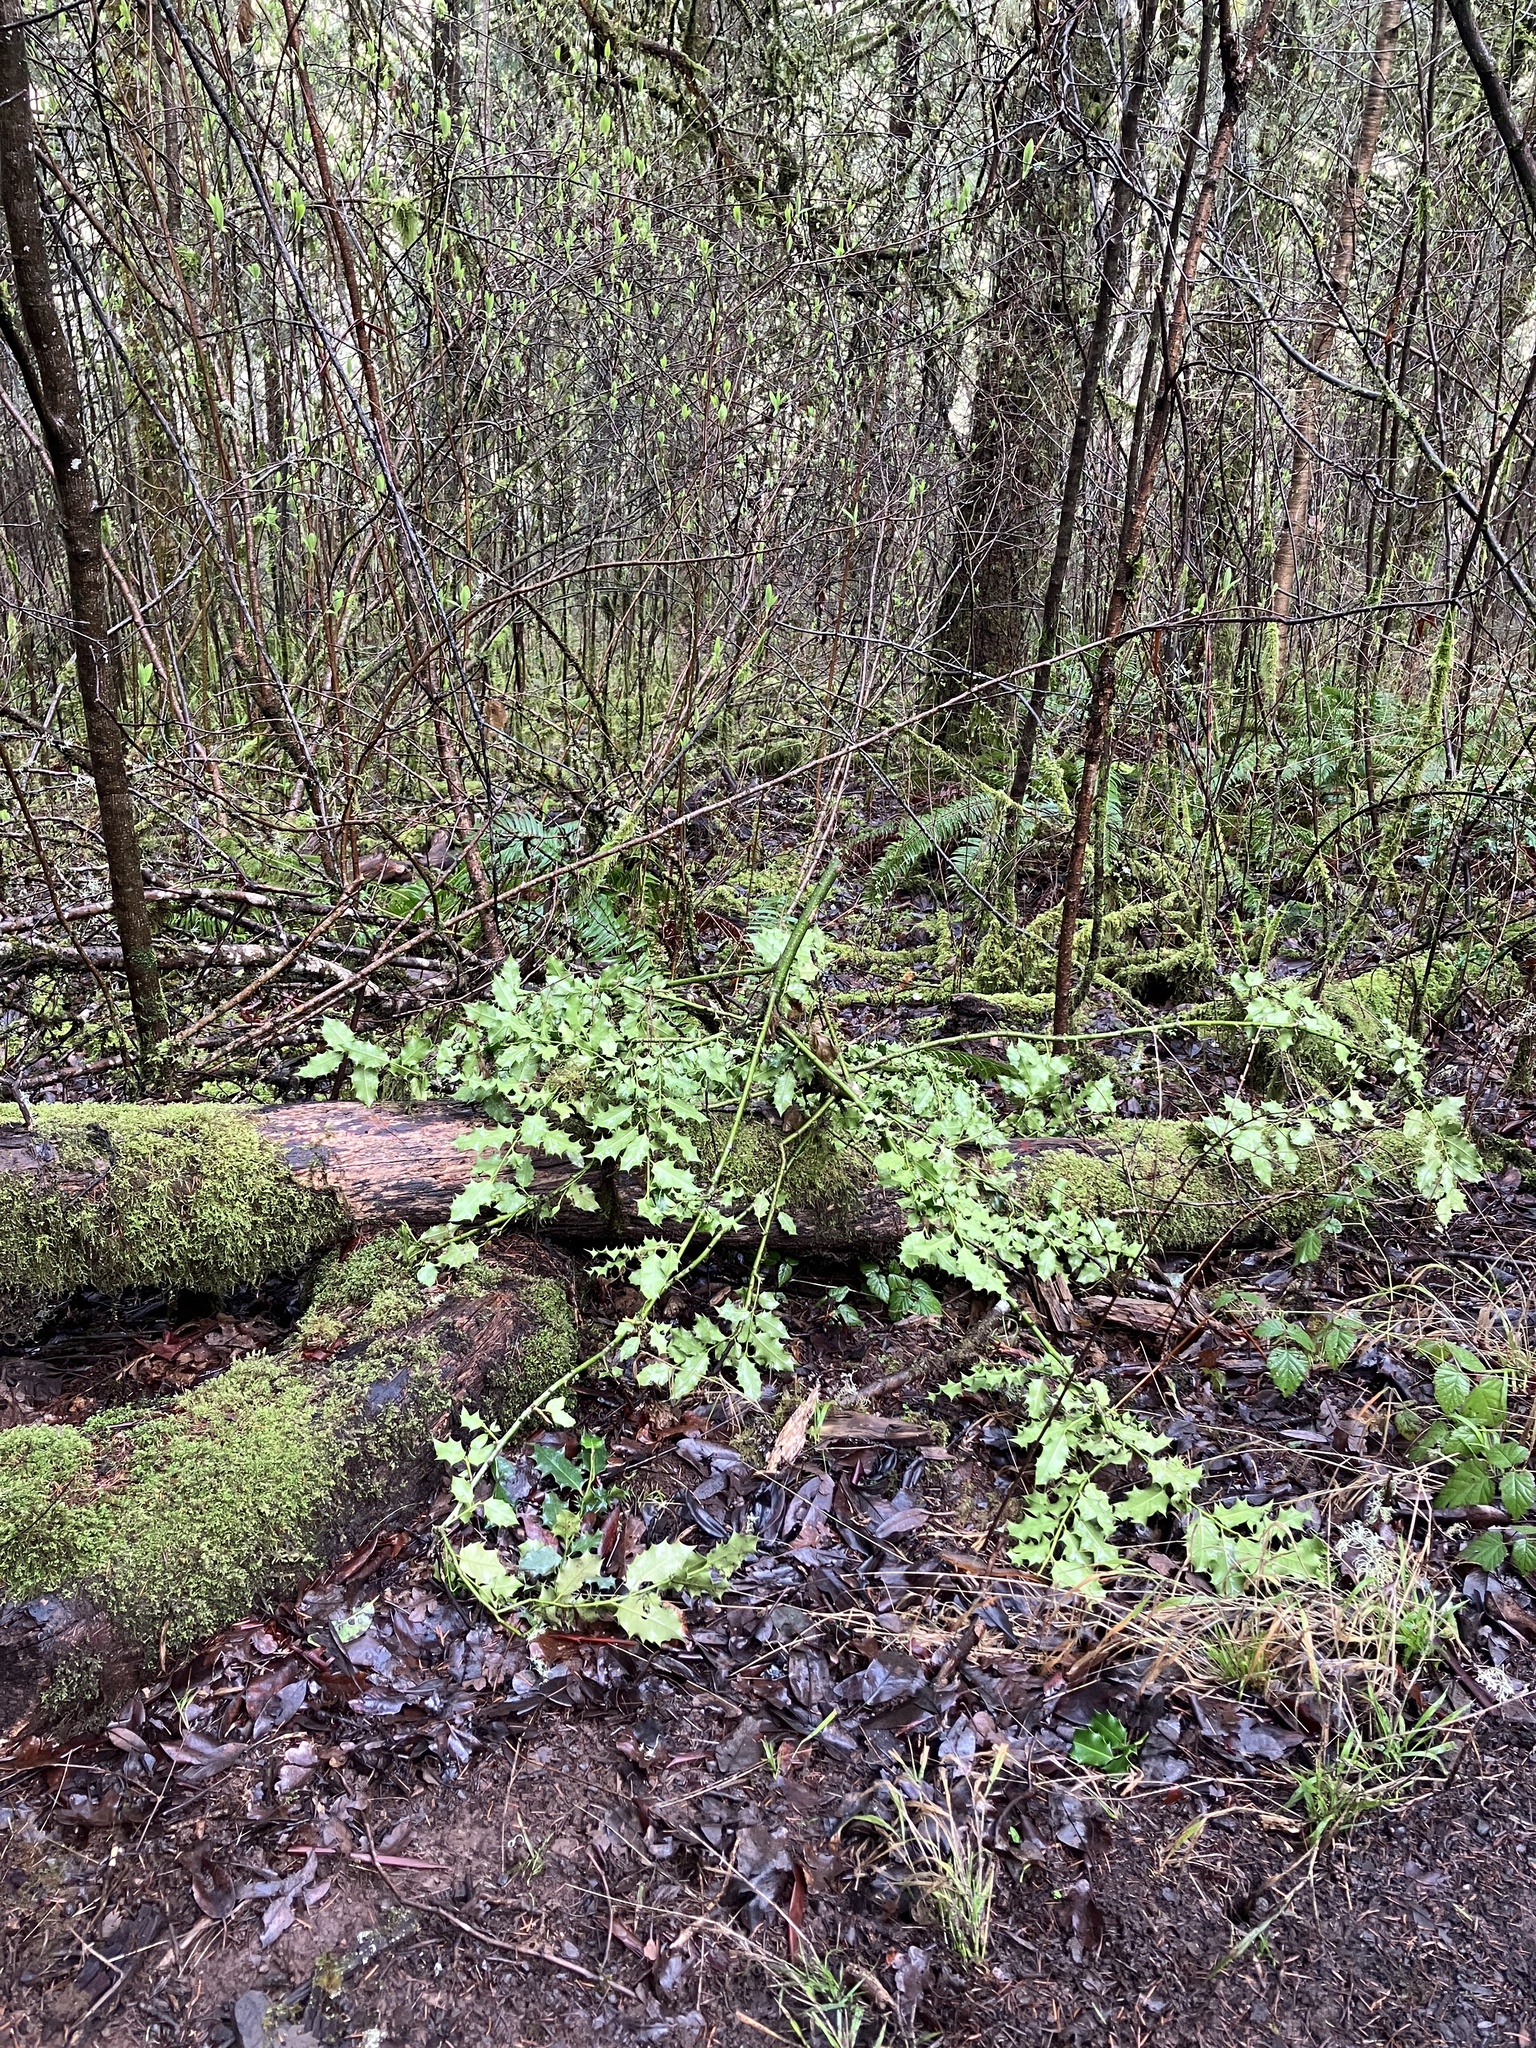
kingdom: Plantae
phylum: Tracheophyta
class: Magnoliopsida
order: Aquifoliales
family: Aquifoliaceae
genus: Ilex
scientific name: Ilex aquifolium
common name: English holly
